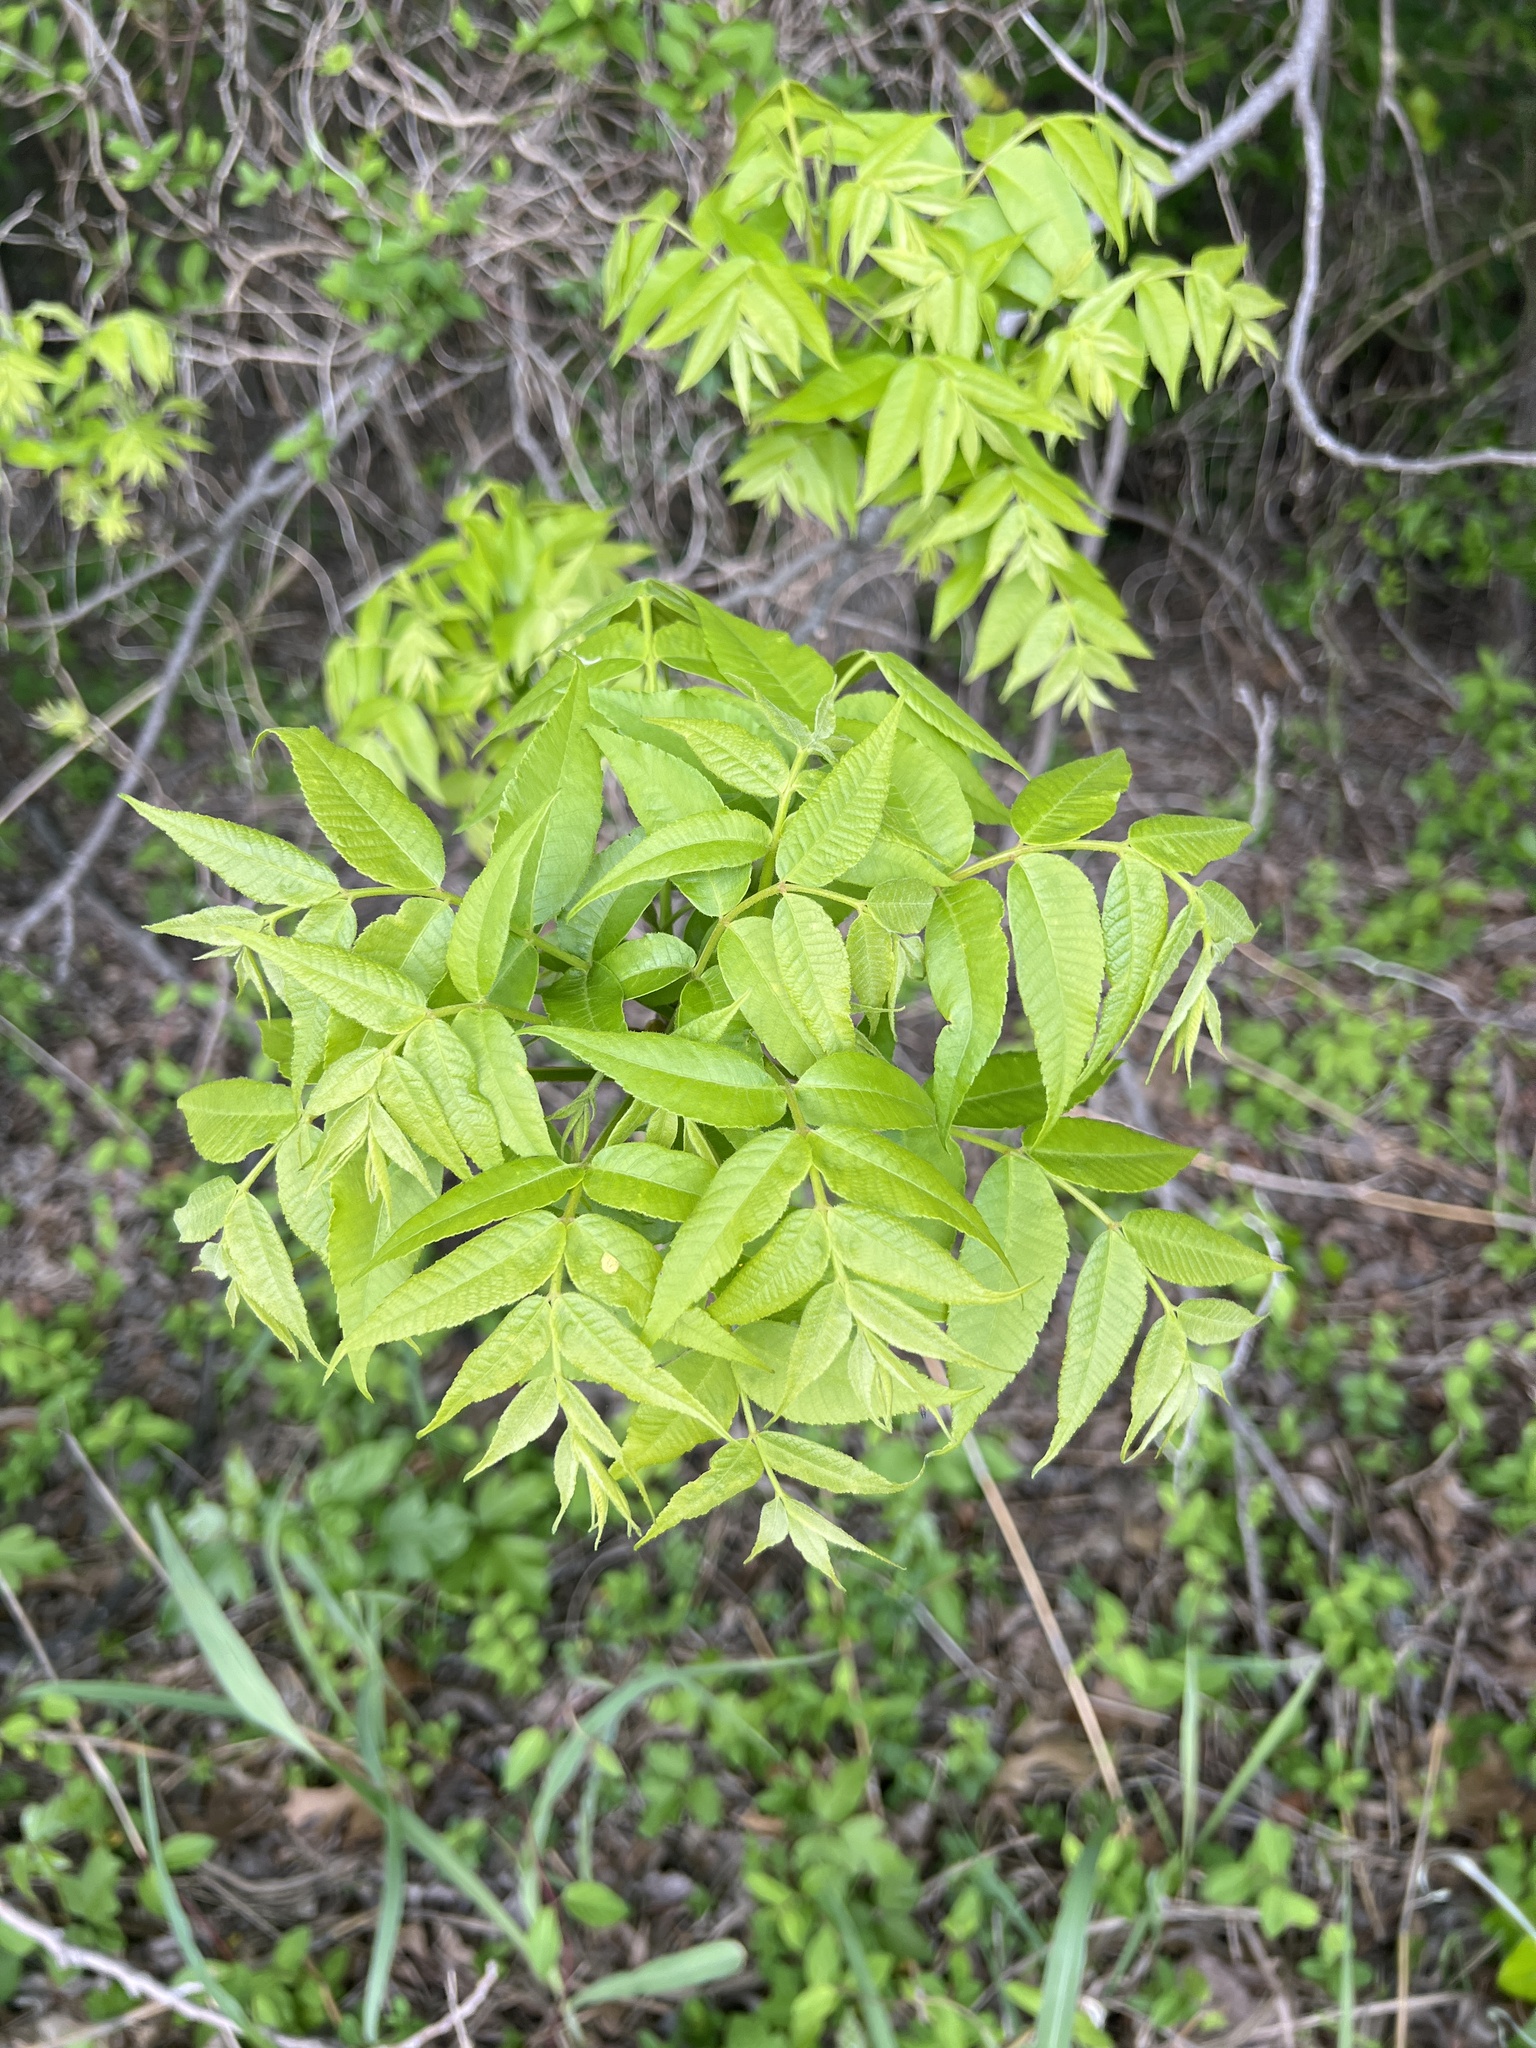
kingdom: Plantae
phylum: Tracheophyta
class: Magnoliopsida
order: Fagales
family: Juglandaceae
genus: Carya
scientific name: Carya illinoinensis
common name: Pecan
